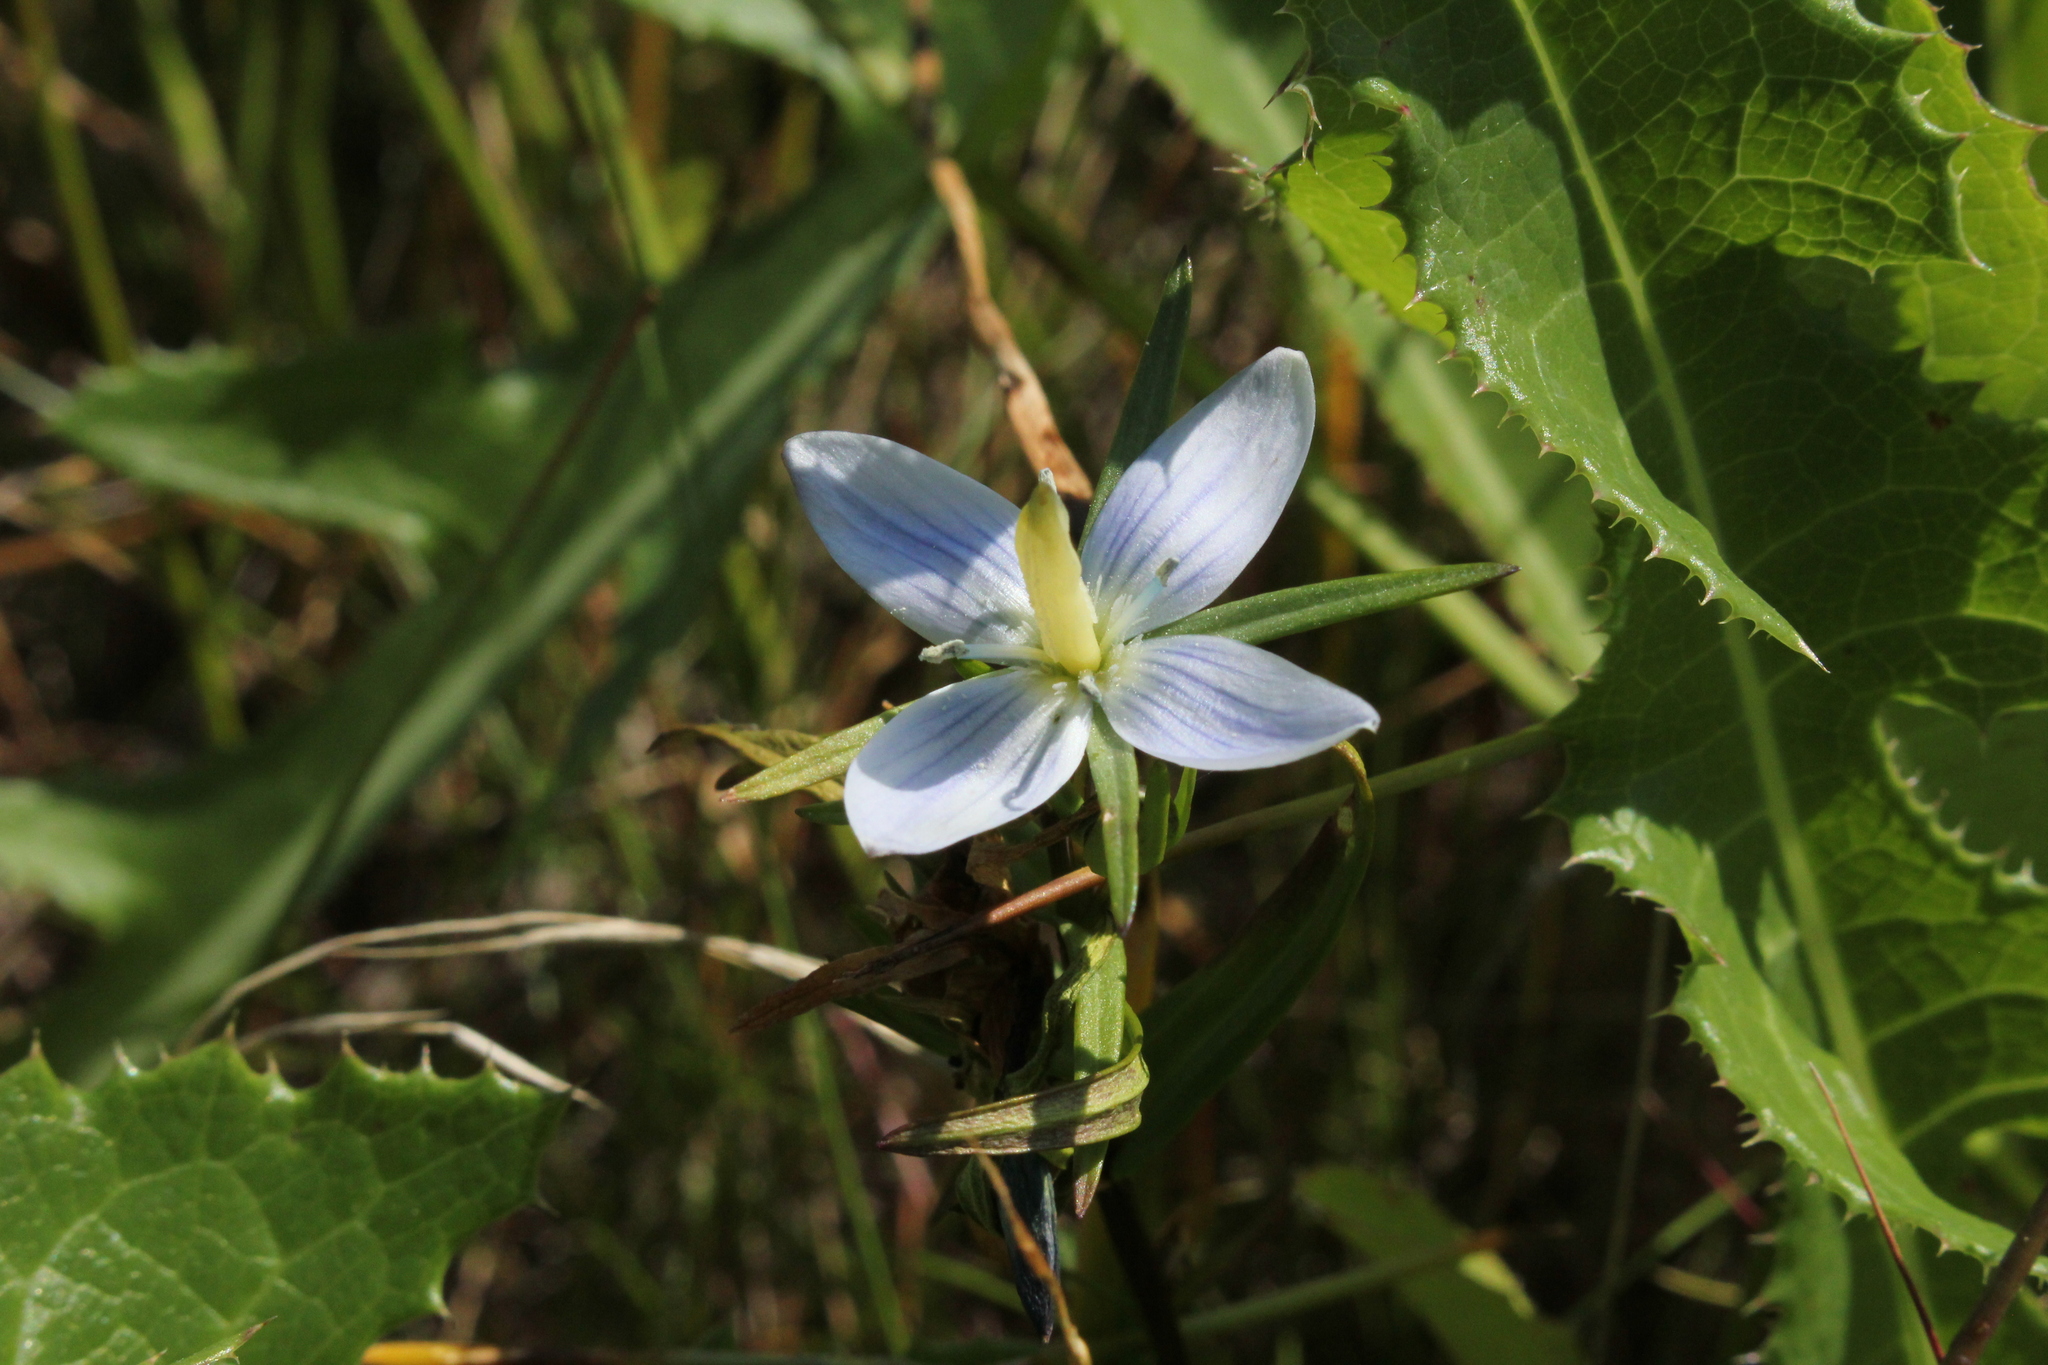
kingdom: Plantae
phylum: Tracheophyta
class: Magnoliopsida
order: Gentianales
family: Gentianaceae
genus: Lomatogonium
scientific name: Lomatogonium rotatum
